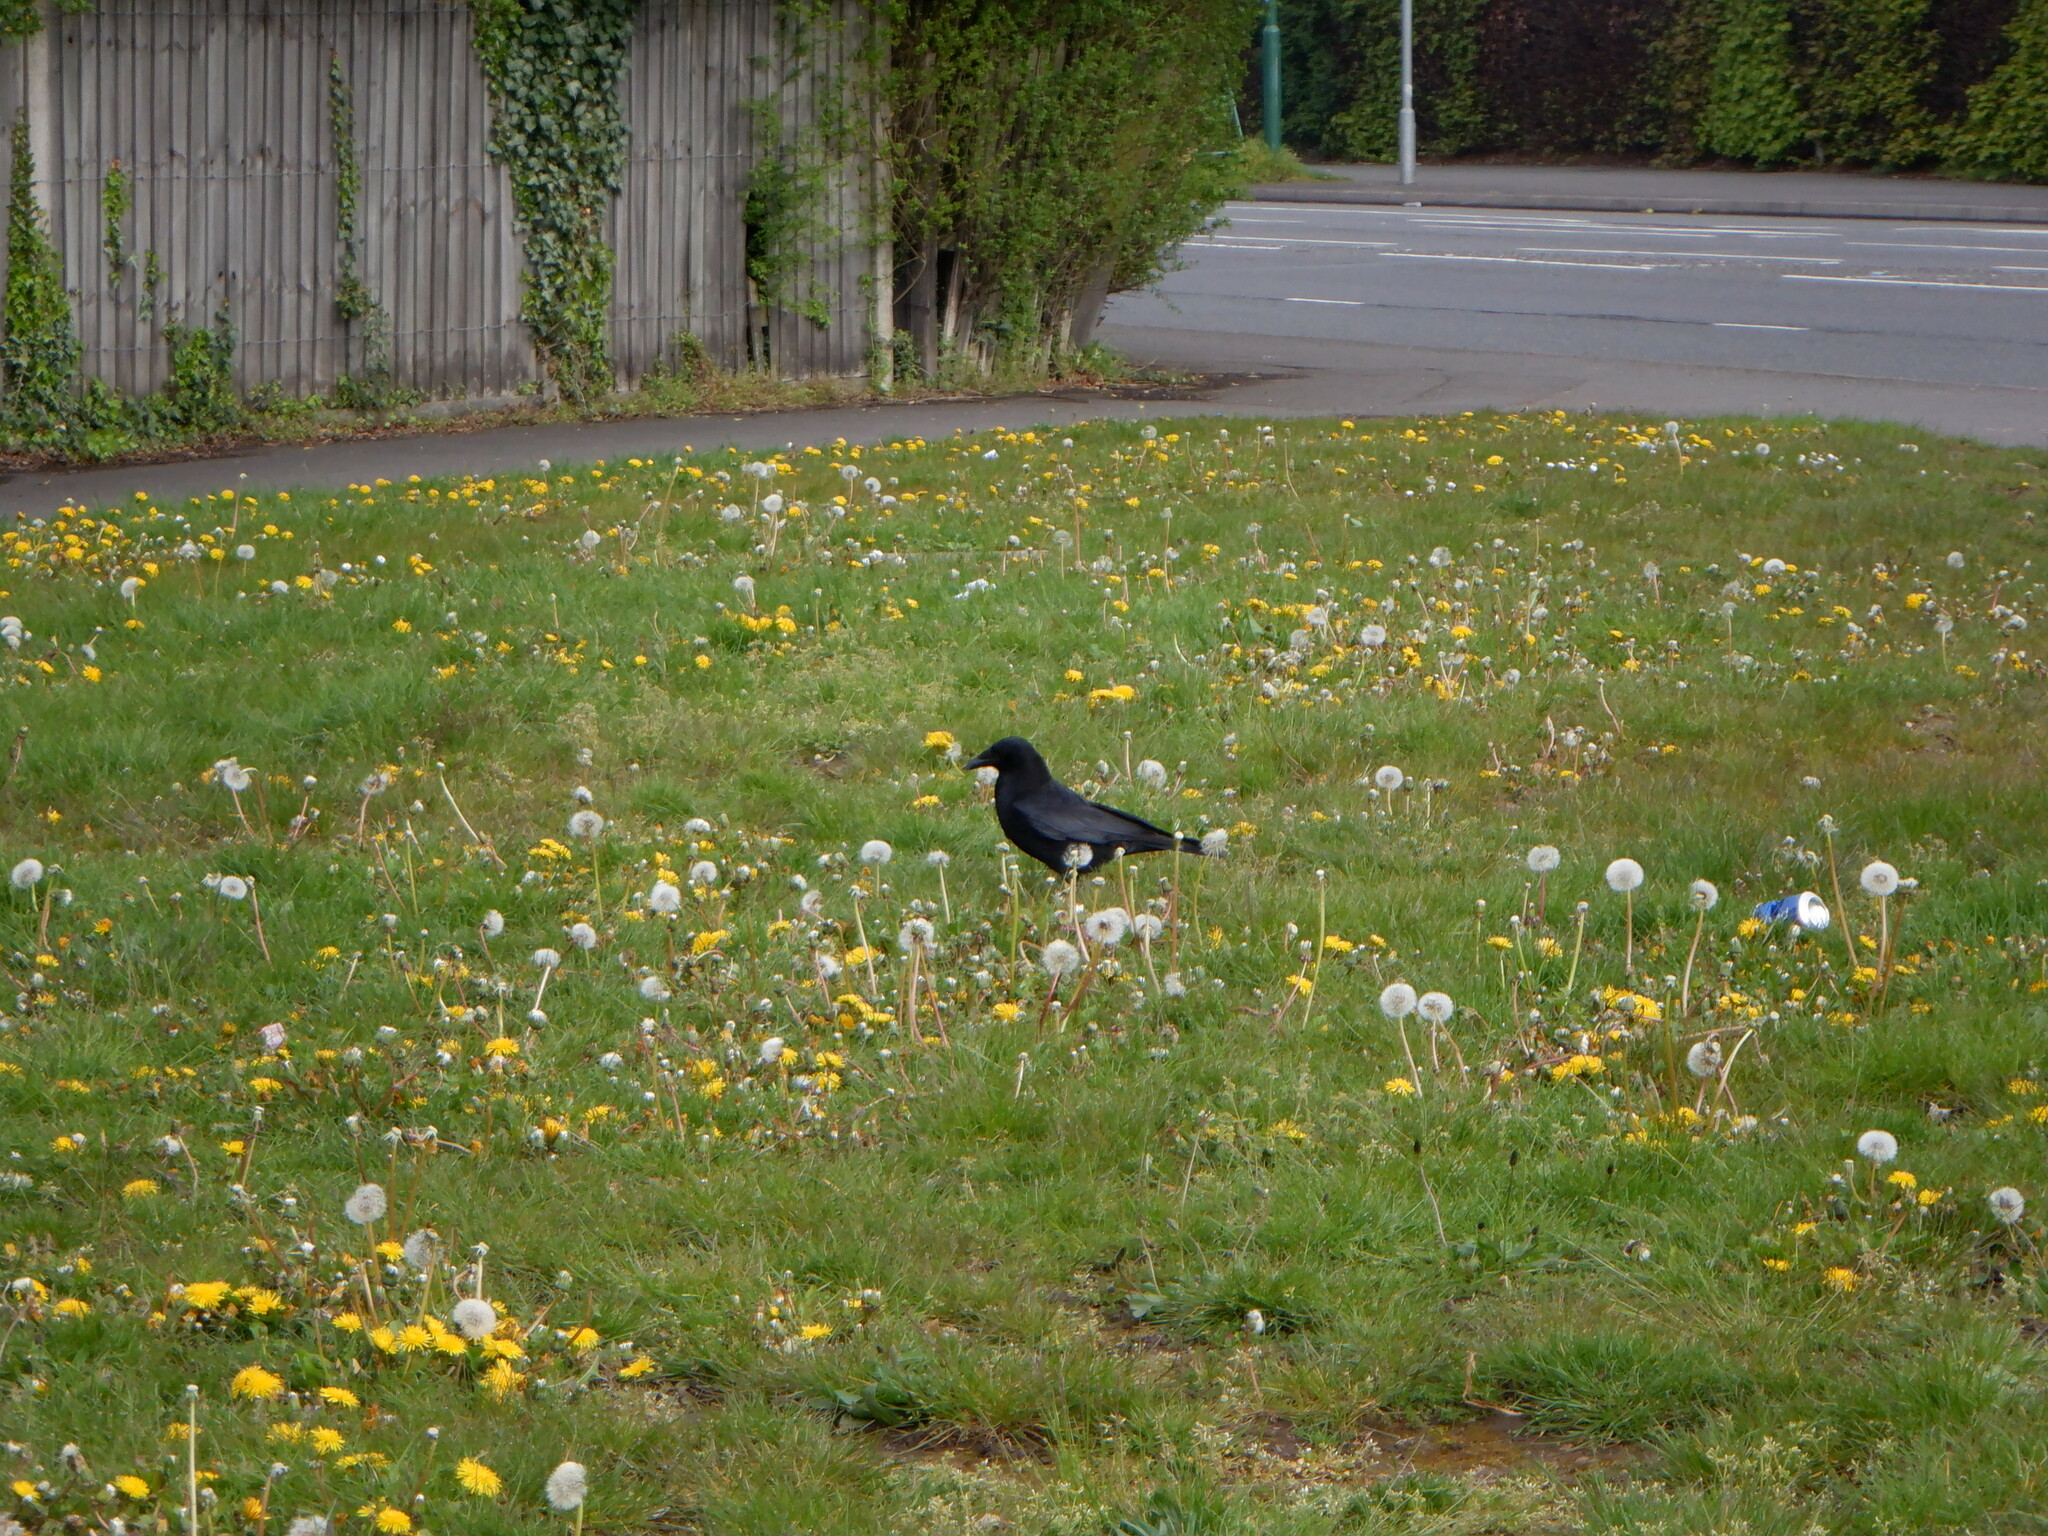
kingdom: Animalia
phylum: Chordata
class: Aves
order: Passeriformes
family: Corvidae
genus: Corvus
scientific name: Corvus corone
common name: Carrion crow
